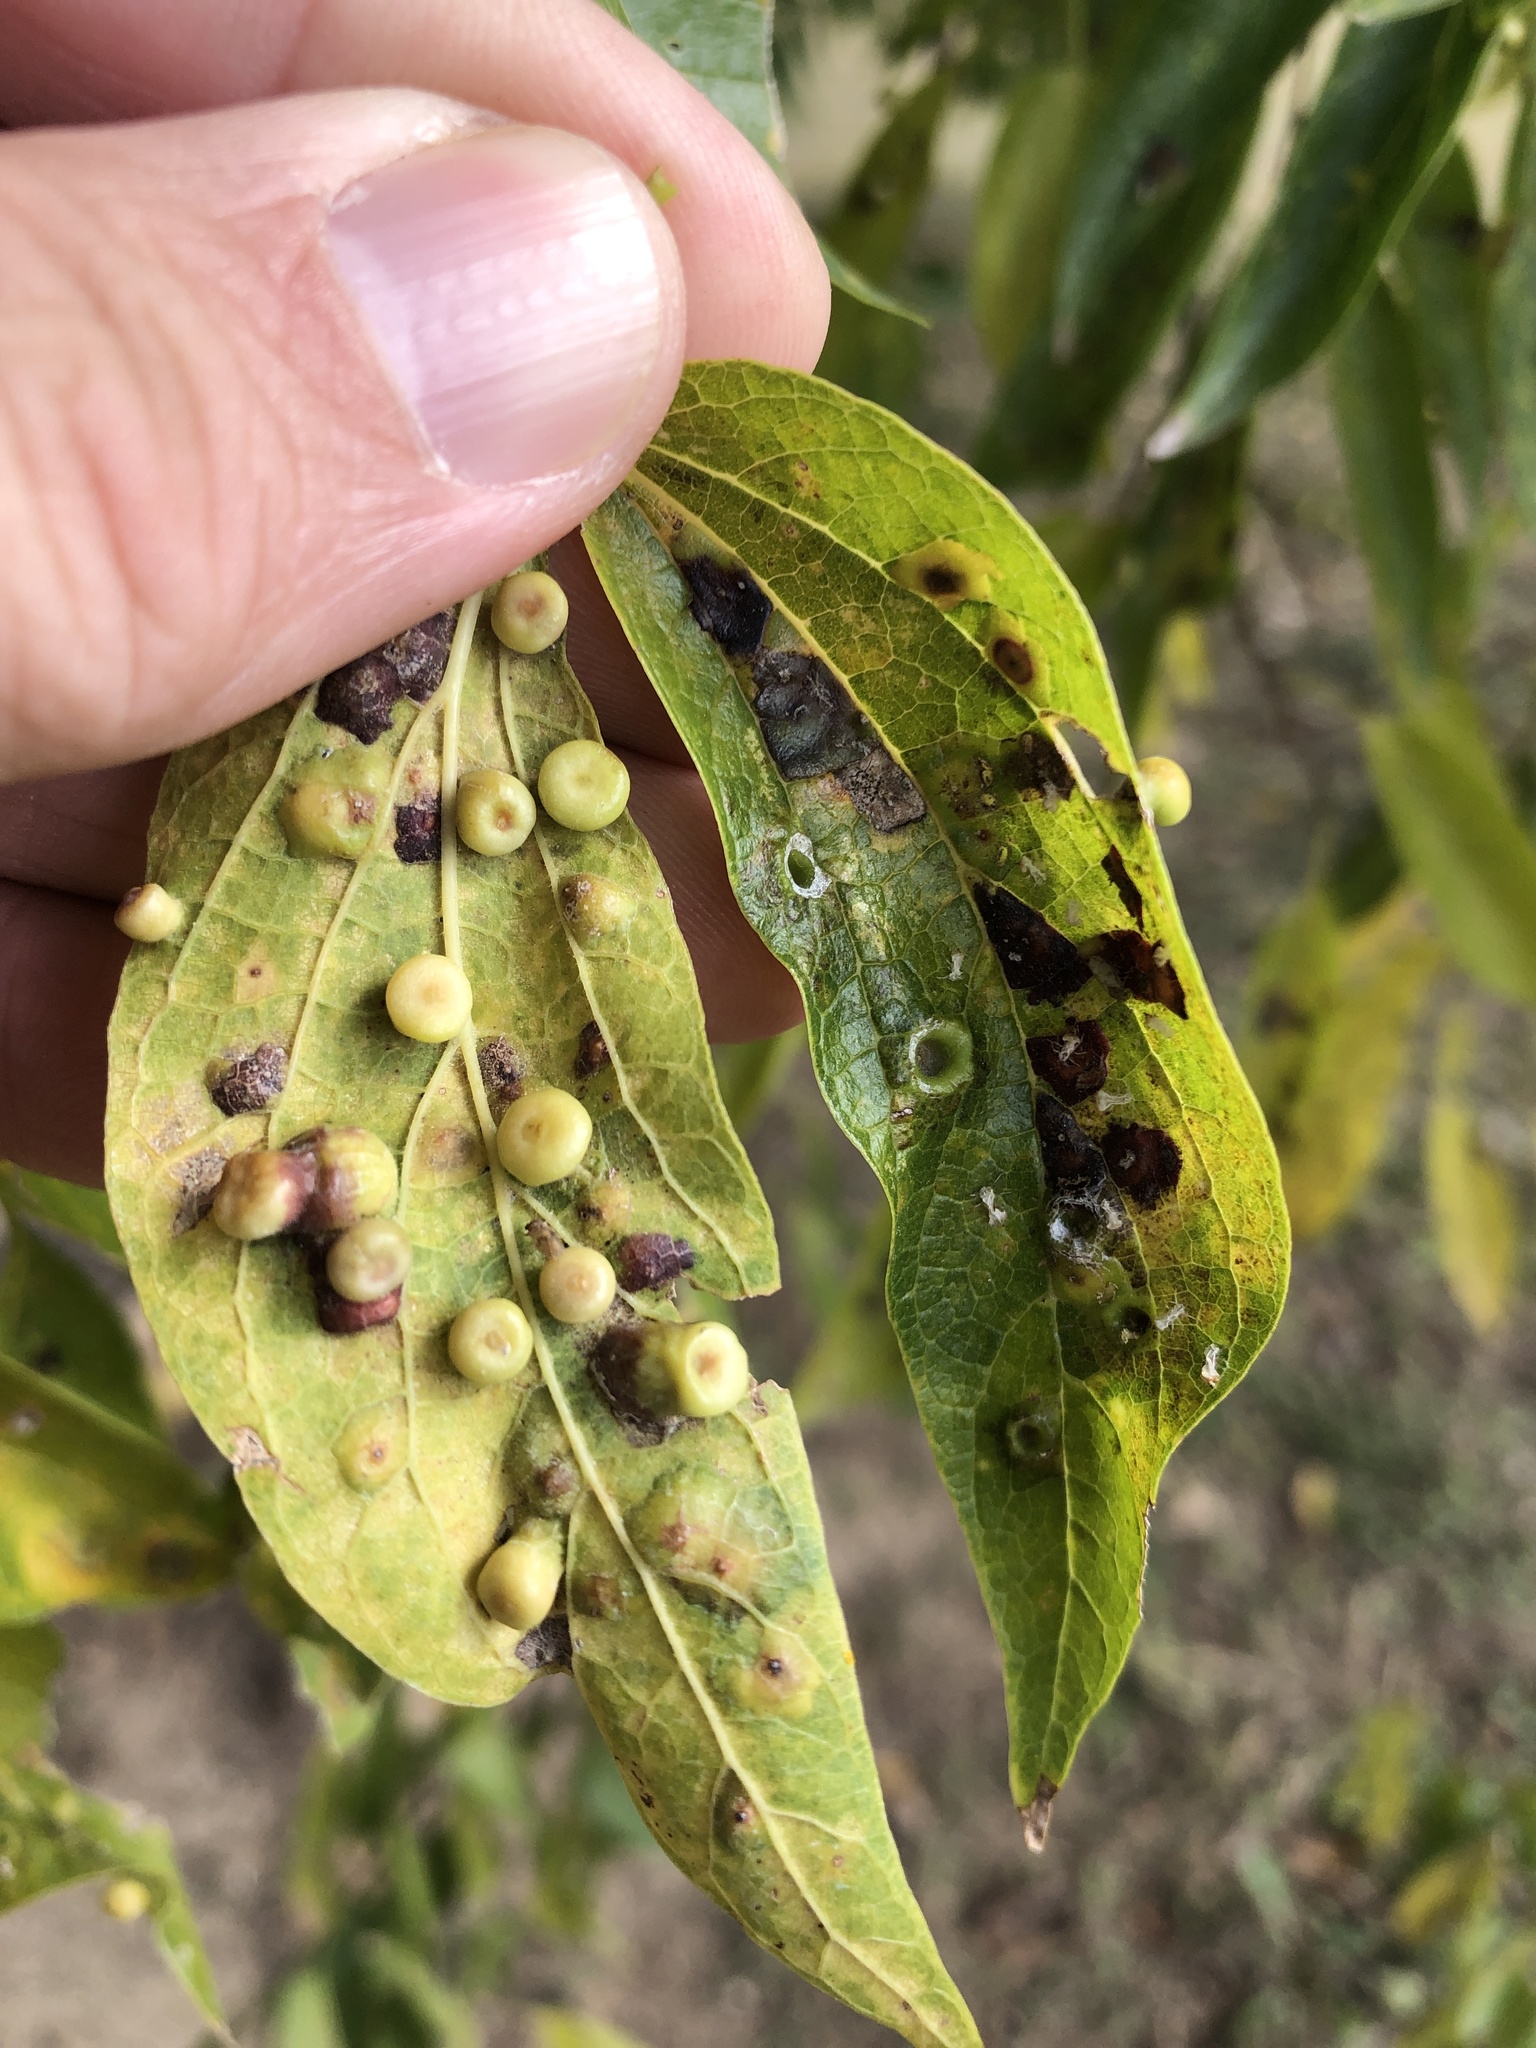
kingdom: Animalia
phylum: Arthropoda
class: Insecta
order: Hemiptera
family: Aphalaridae
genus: Pachypsylla
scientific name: Pachypsylla celtidismamma
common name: Hackberry nipplegall psyllid
